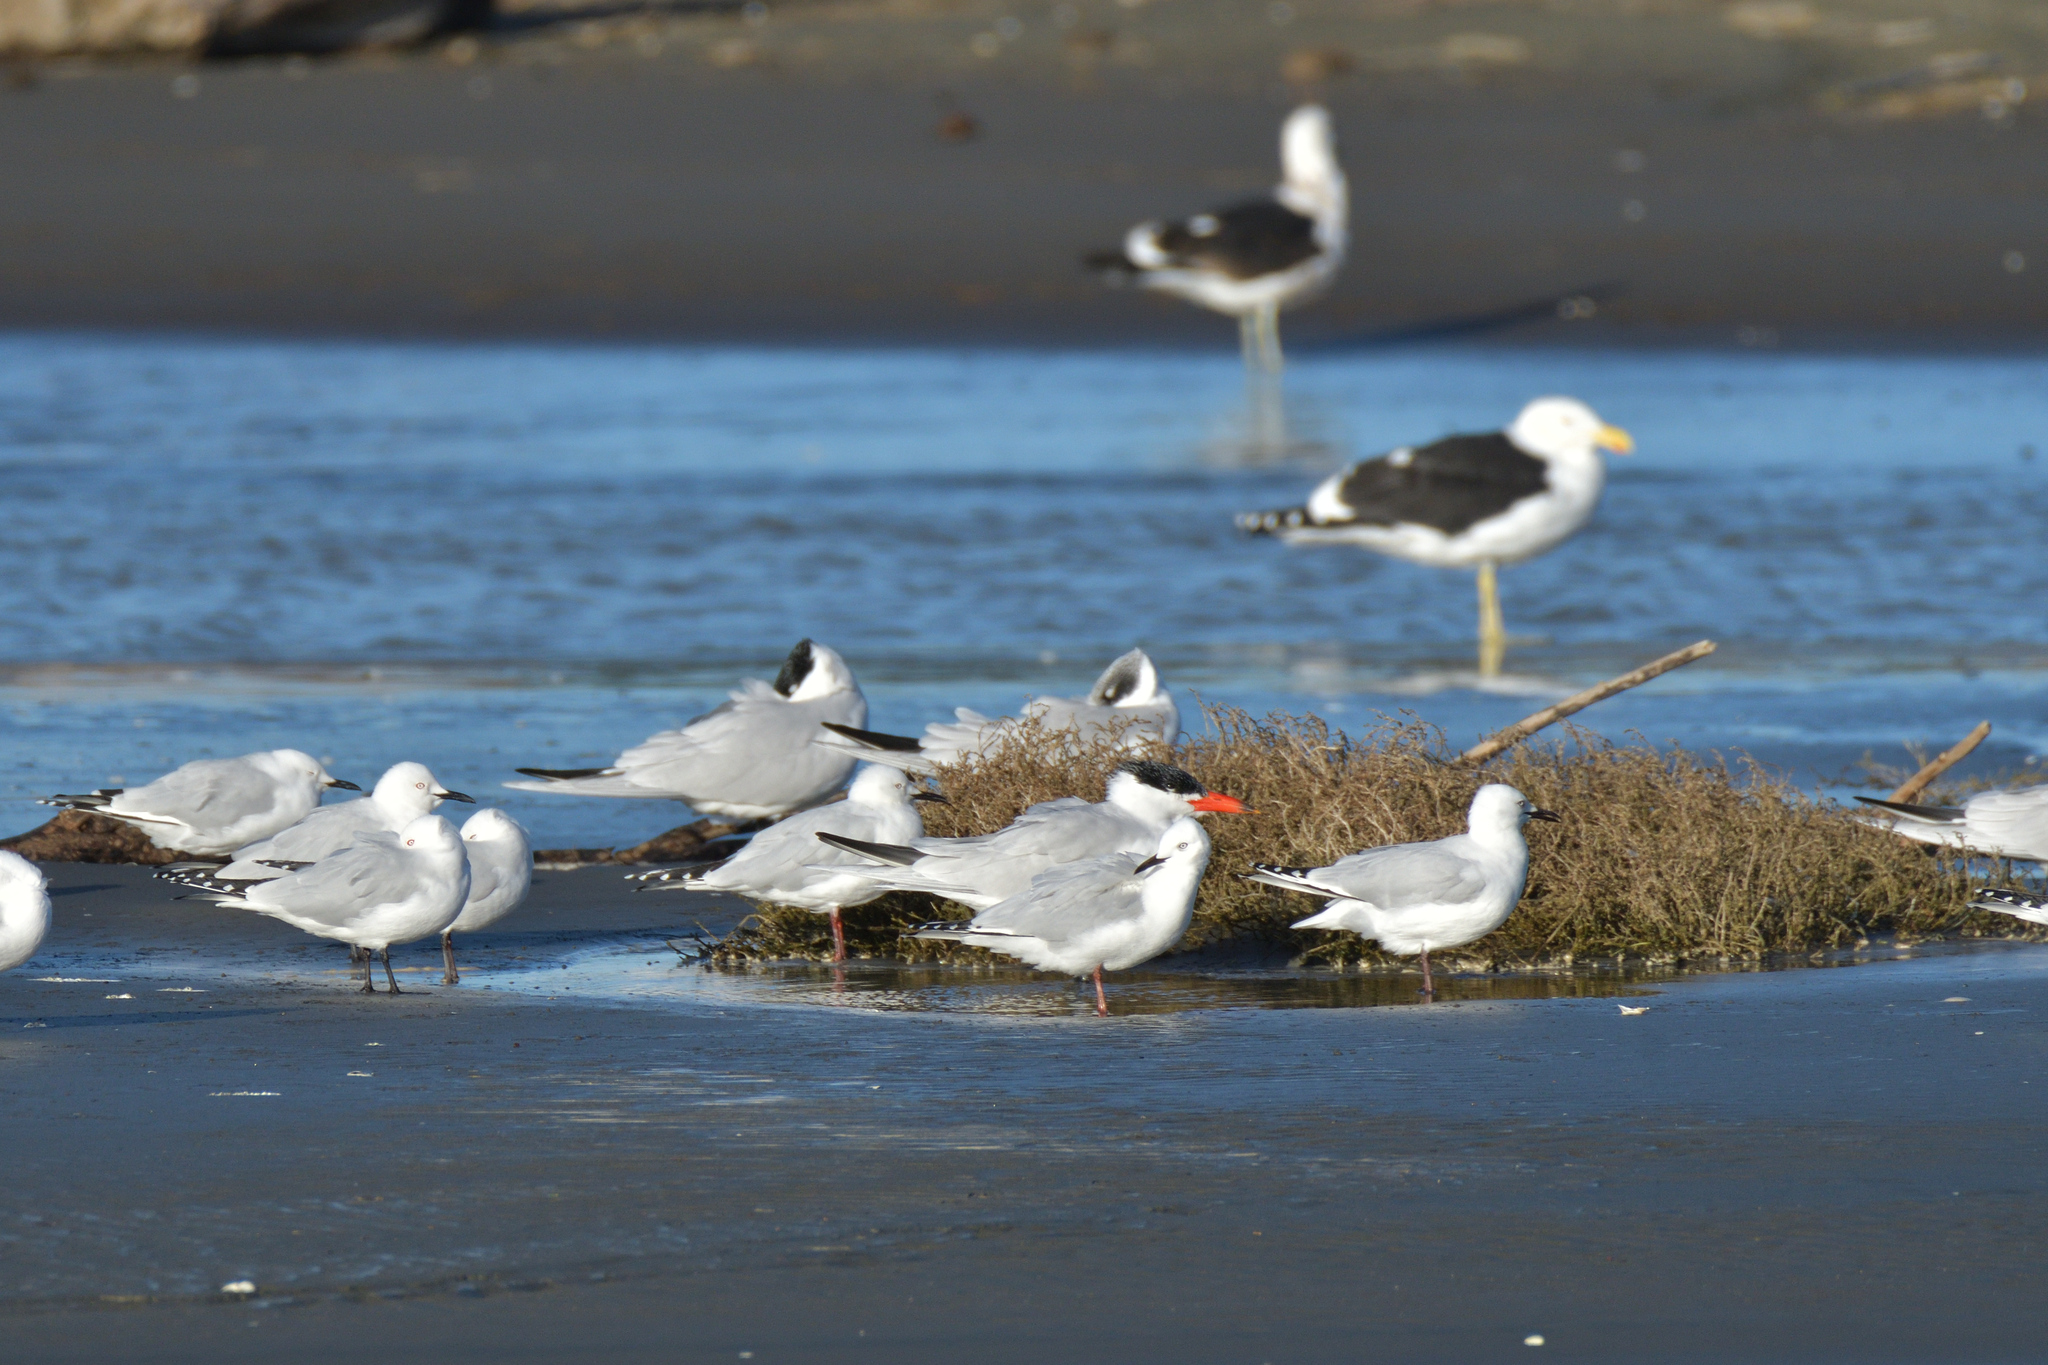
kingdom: Animalia
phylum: Chordata
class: Aves
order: Charadriiformes
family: Laridae
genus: Hydroprogne
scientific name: Hydroprogne caspia
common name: Caspian tern
